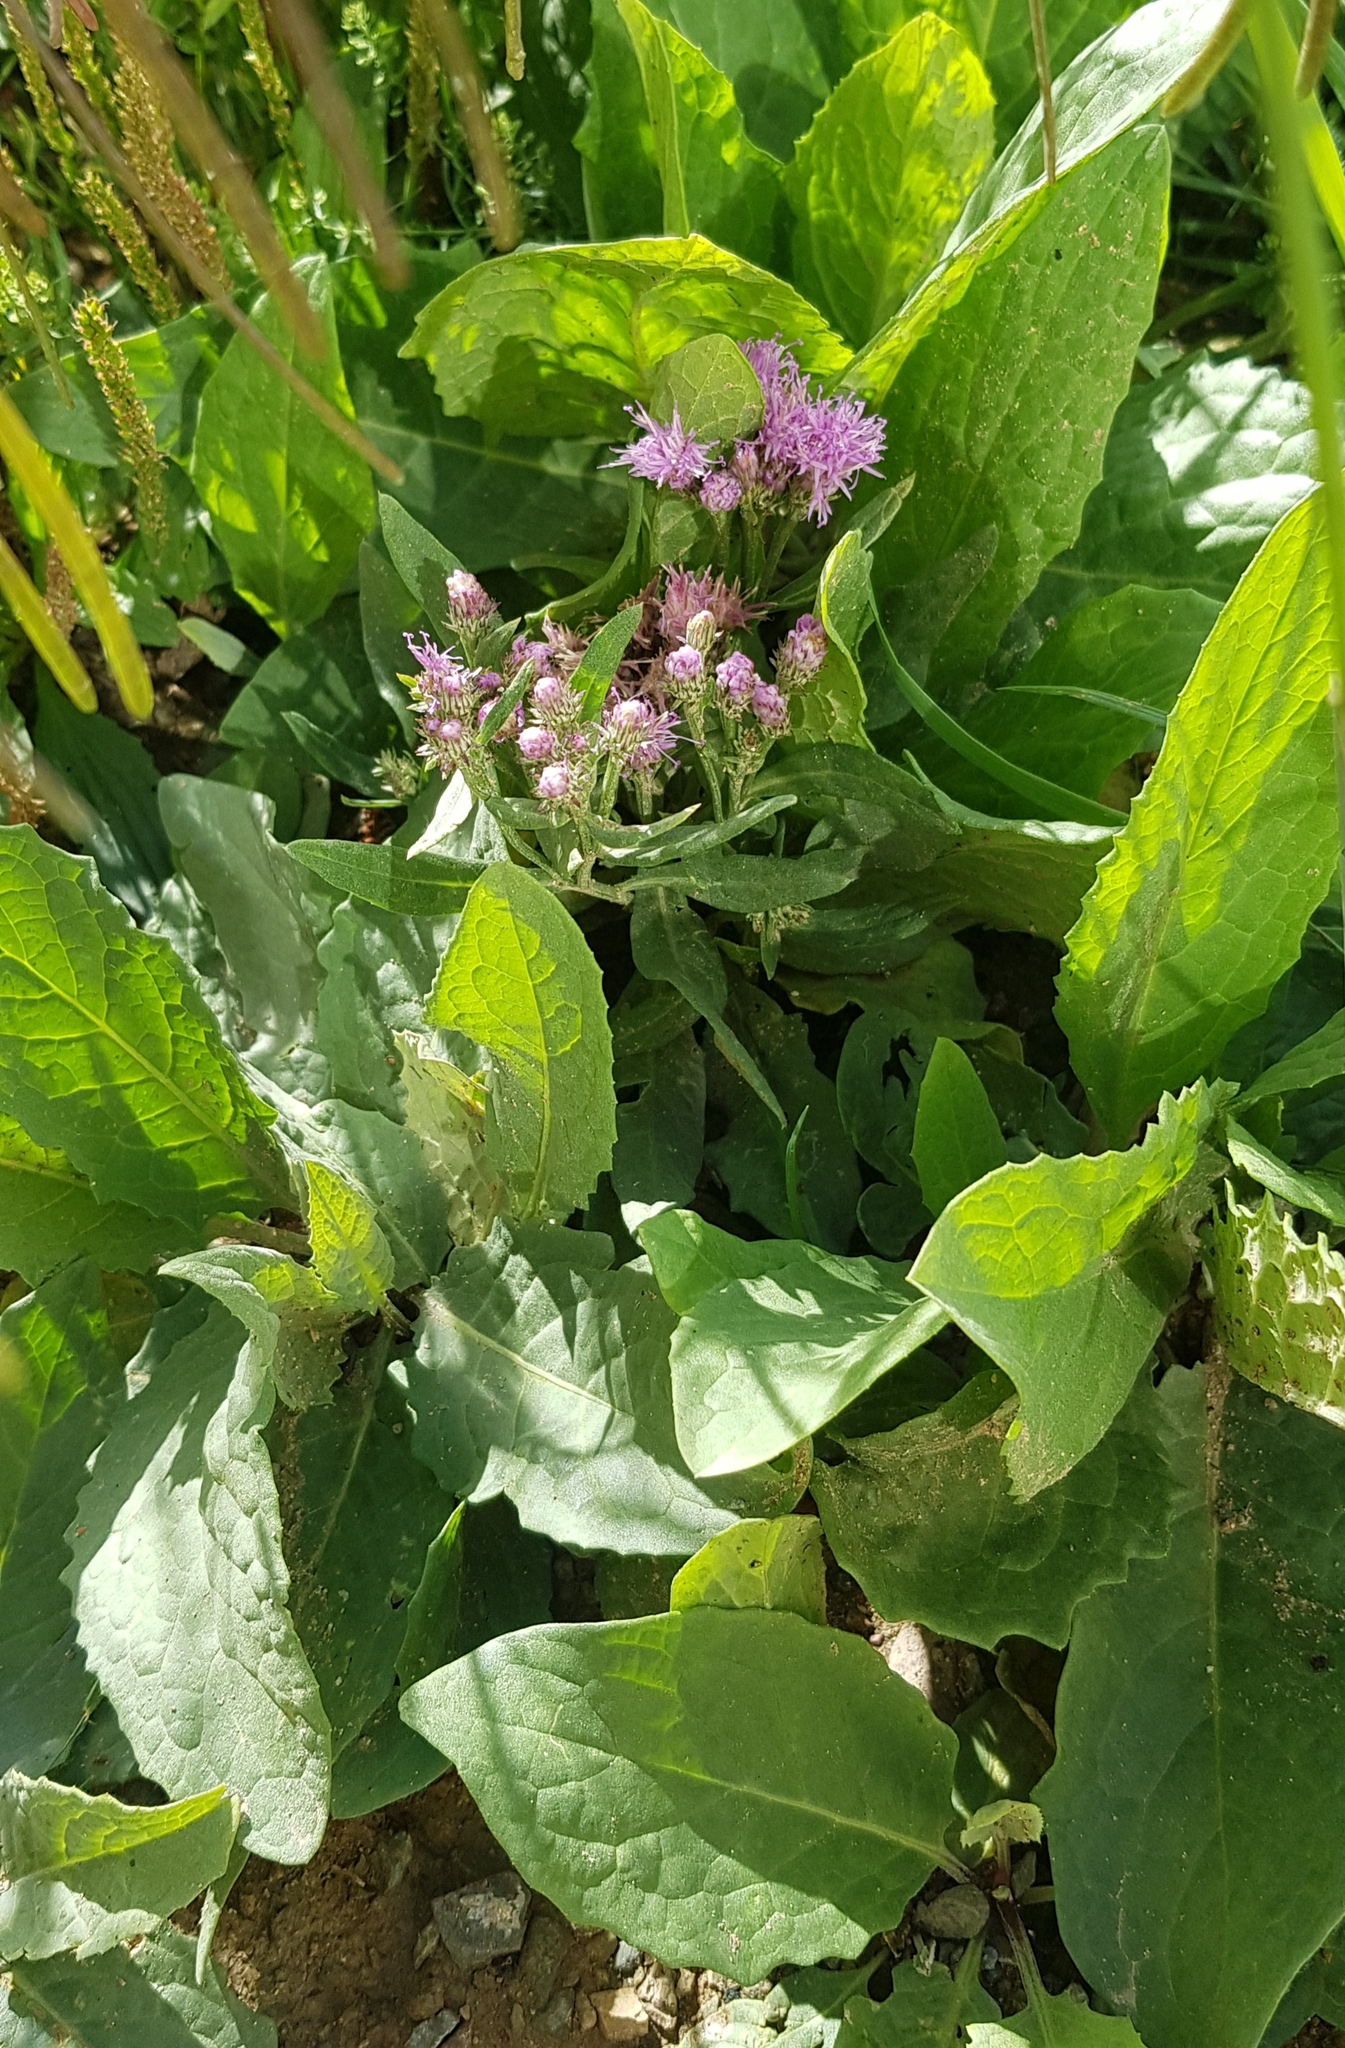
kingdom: Plantae
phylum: Tracheophyta
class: Magnoliopsida
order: Asterales
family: Asteraceae
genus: Saussurea
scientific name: Saussurea amara
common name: Alberta sawwort
